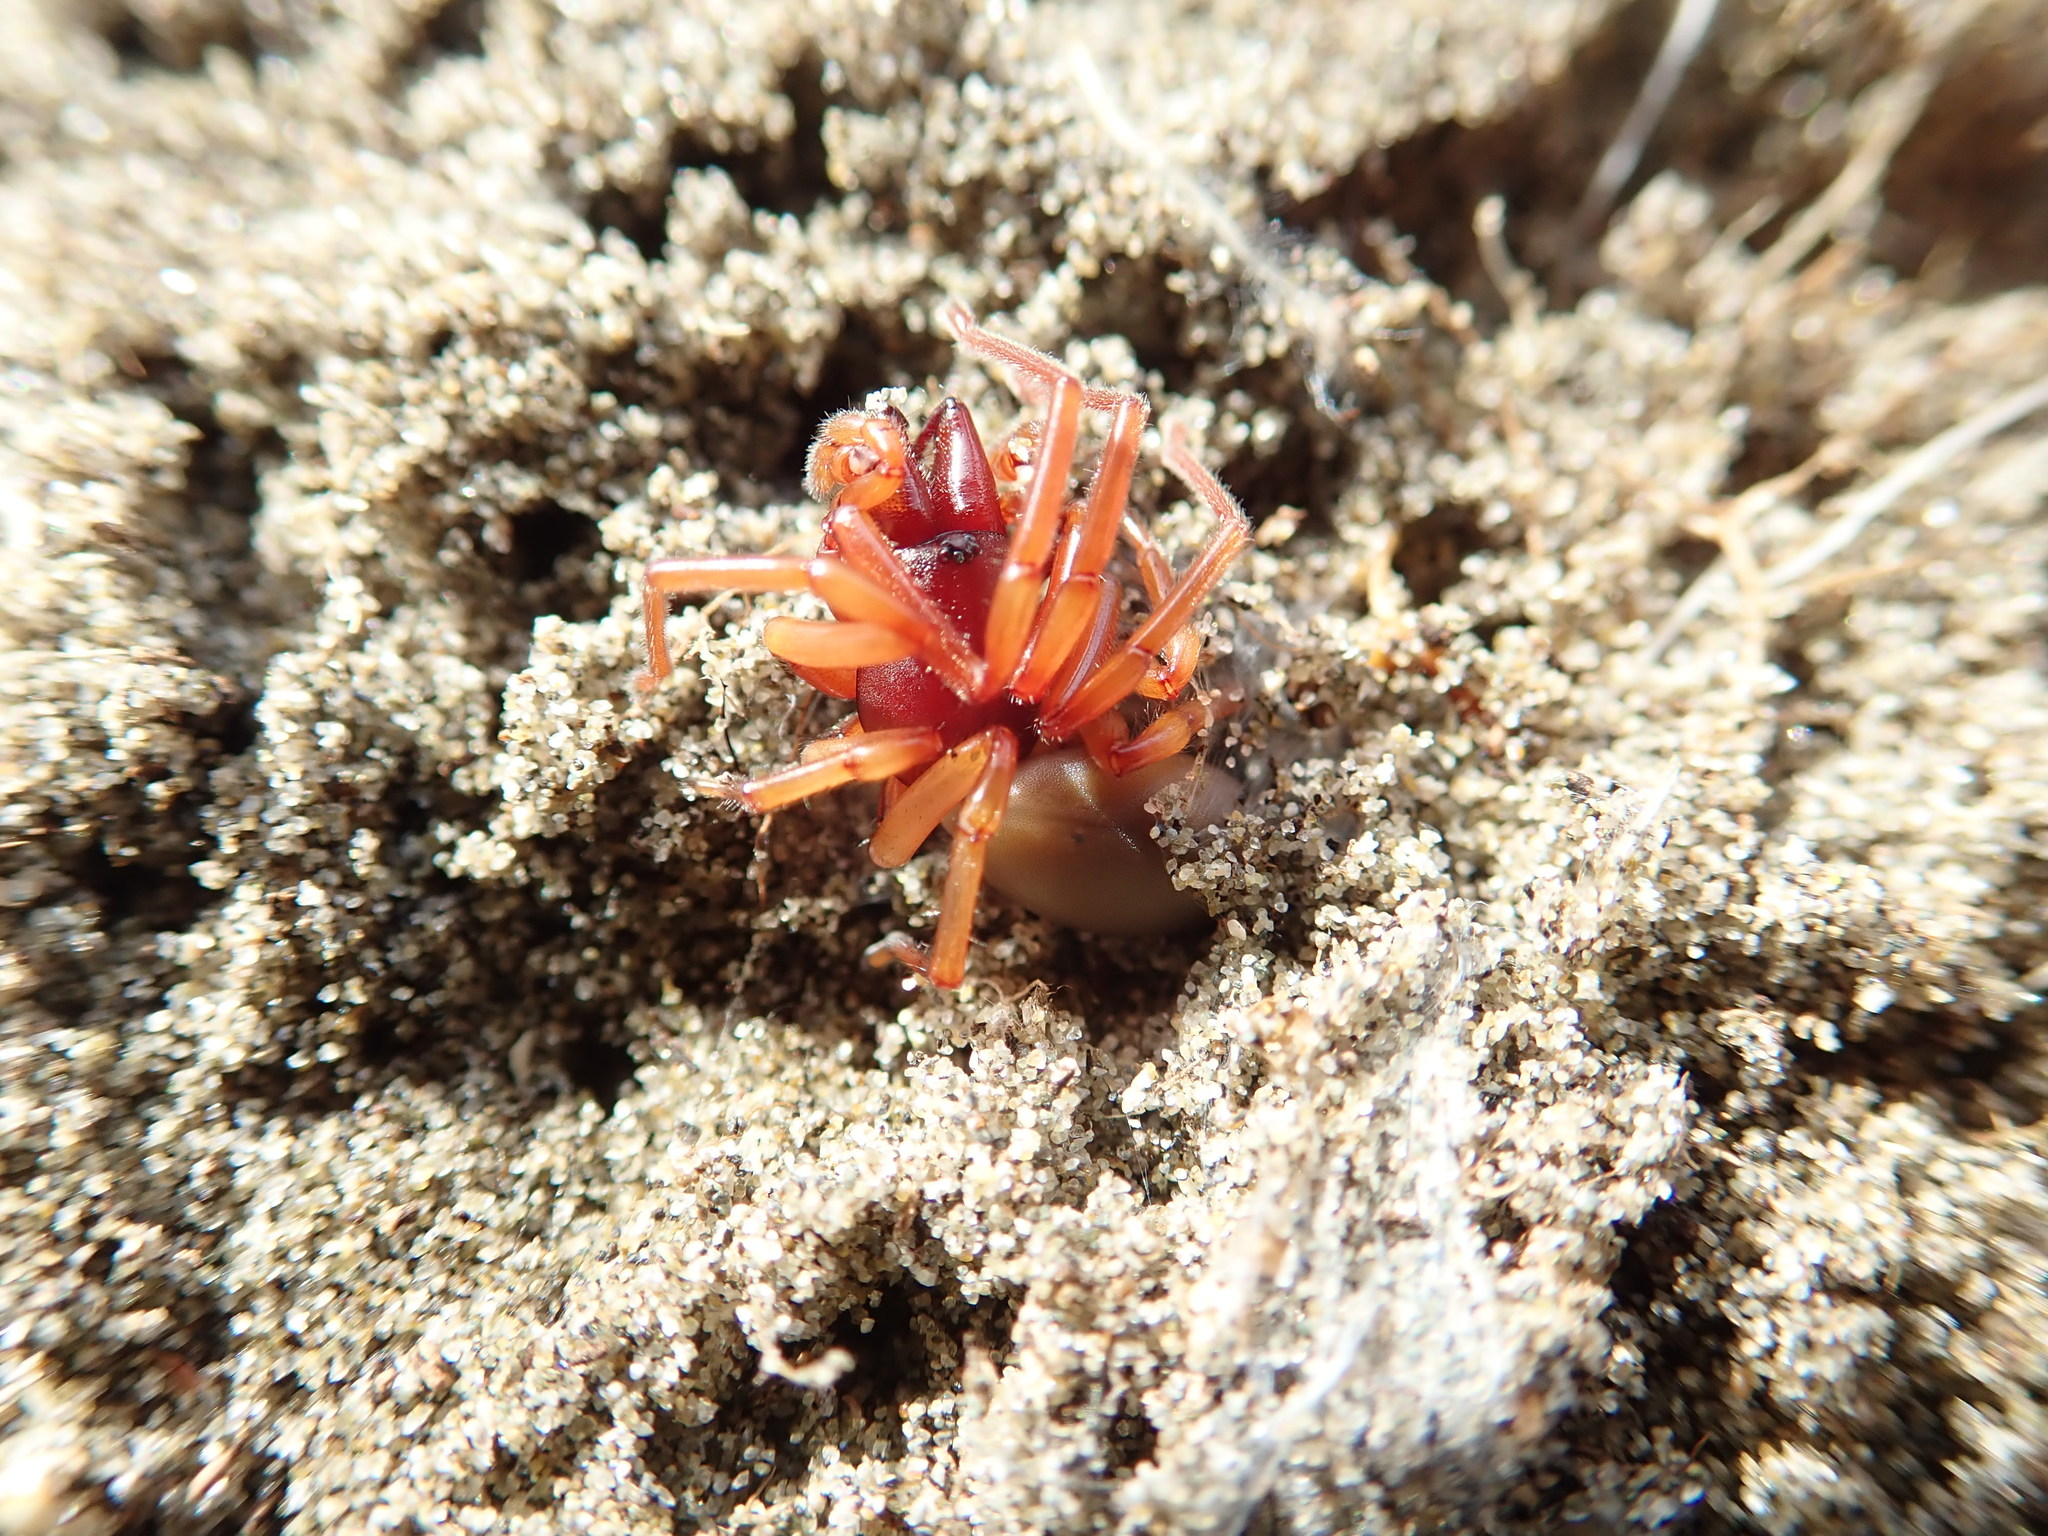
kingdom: Animalia
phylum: Arthropoda
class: Arachnida
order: Araneae
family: Dysderidae
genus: Dysdera
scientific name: Dysdera crocata
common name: Woodlouse spider
